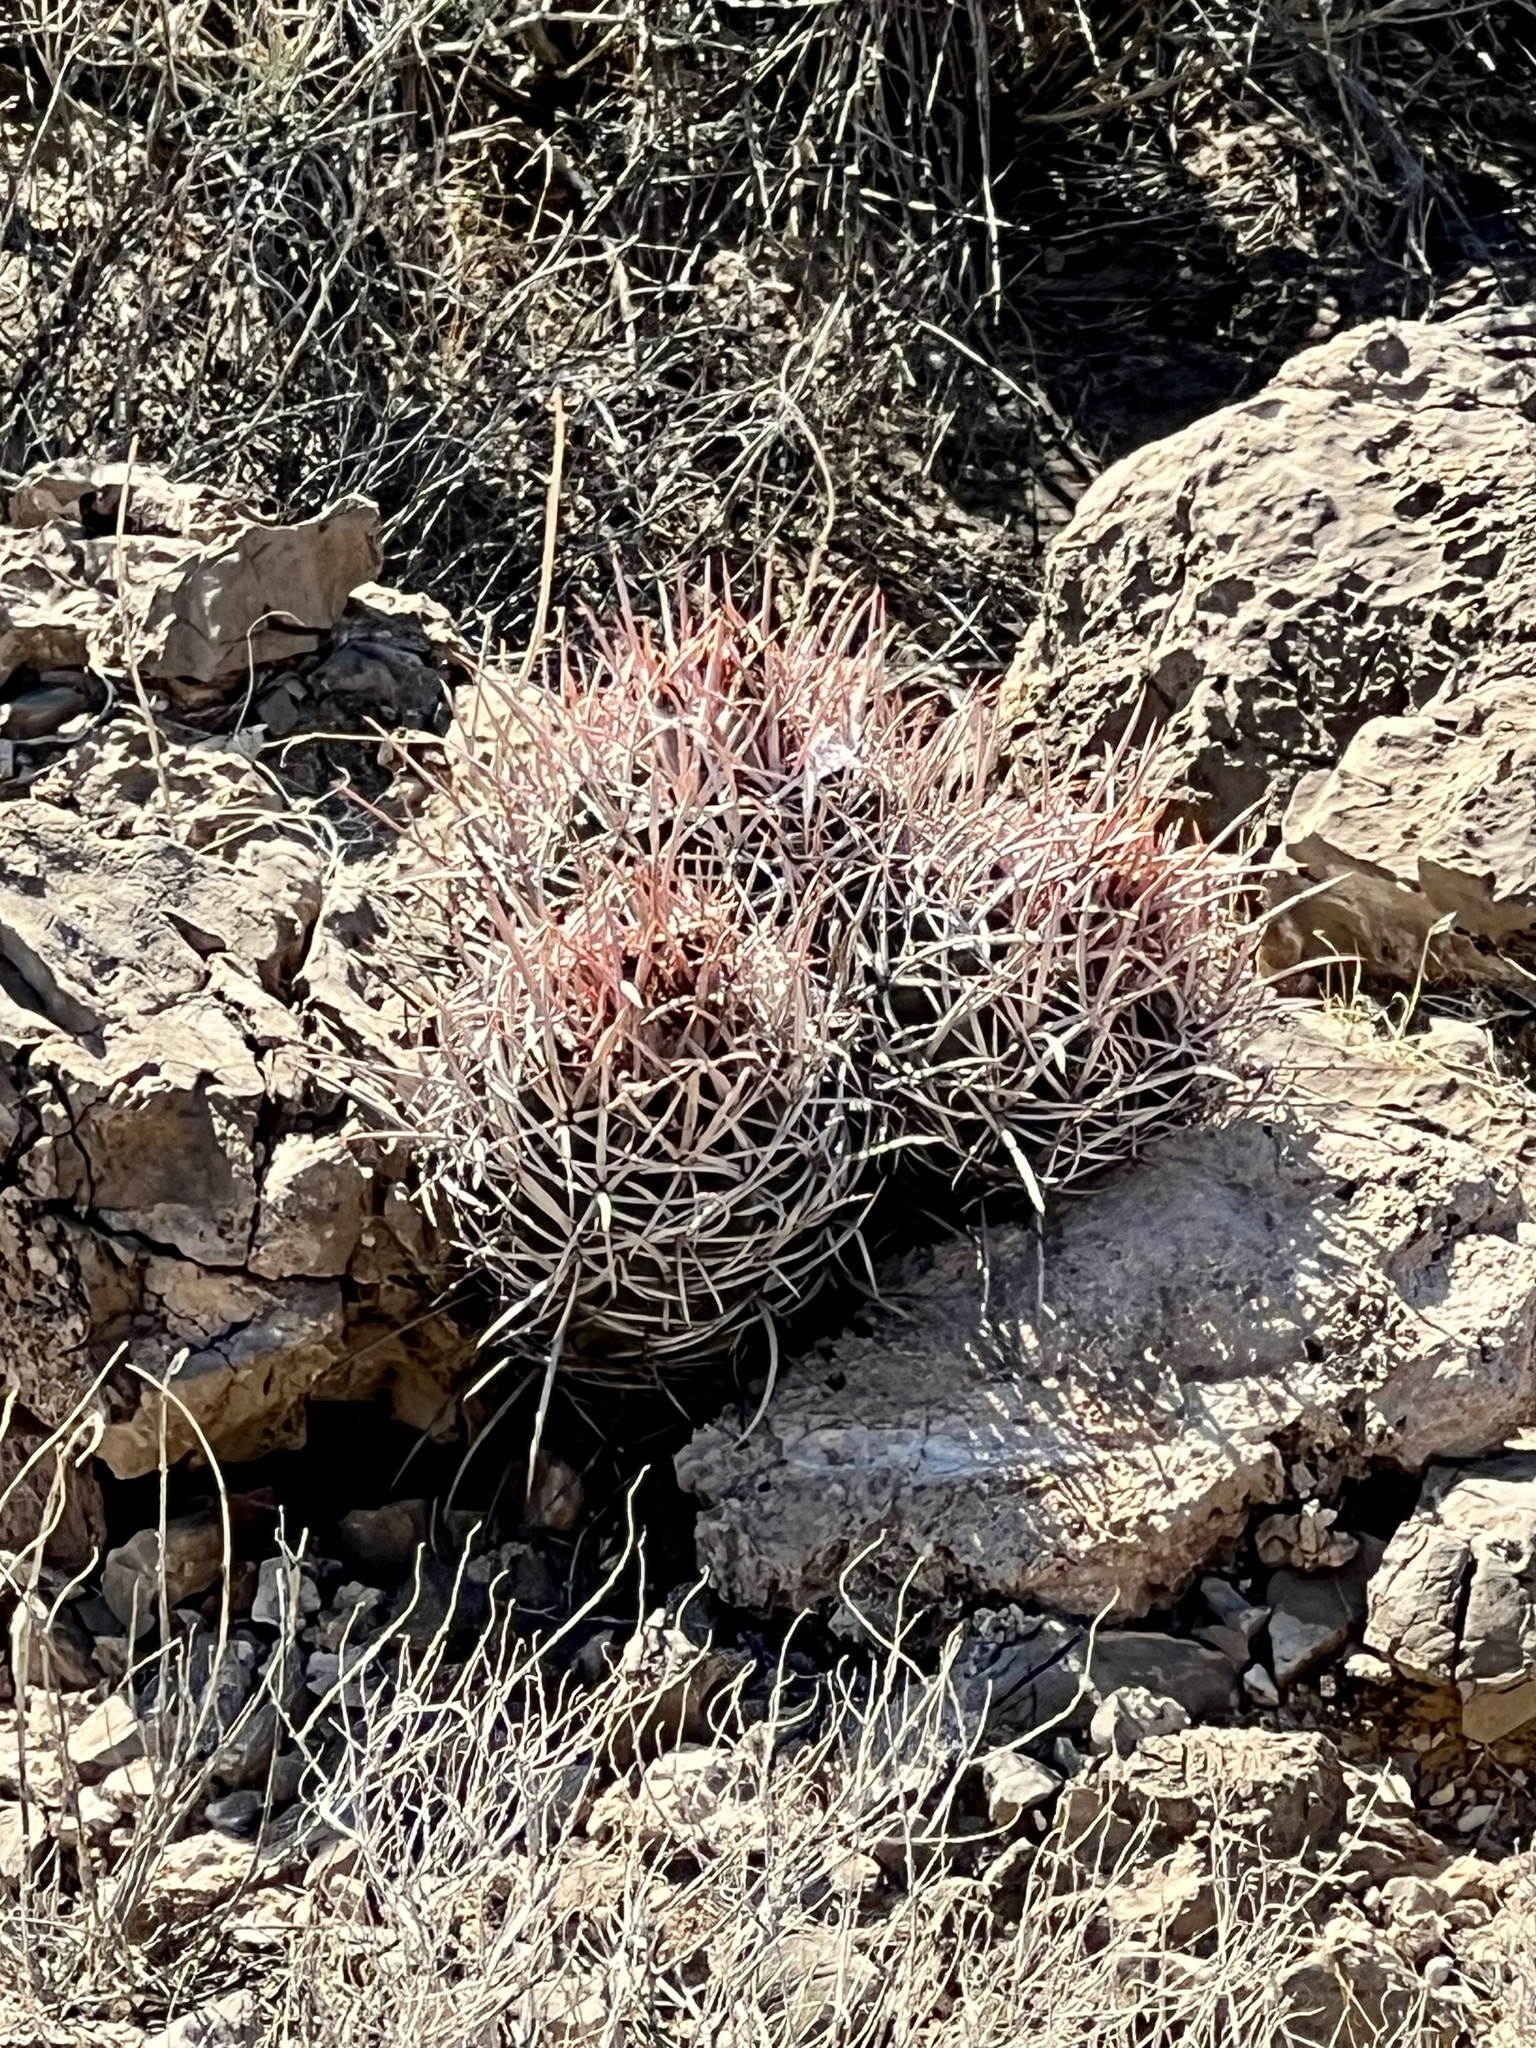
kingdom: Plantae
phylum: Tracheophyta
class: Magnoliopsida
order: Caryophyllales
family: Cactaceae
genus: Echinocactus
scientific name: Echinocactus polycephalus
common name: Cottontop cactus
